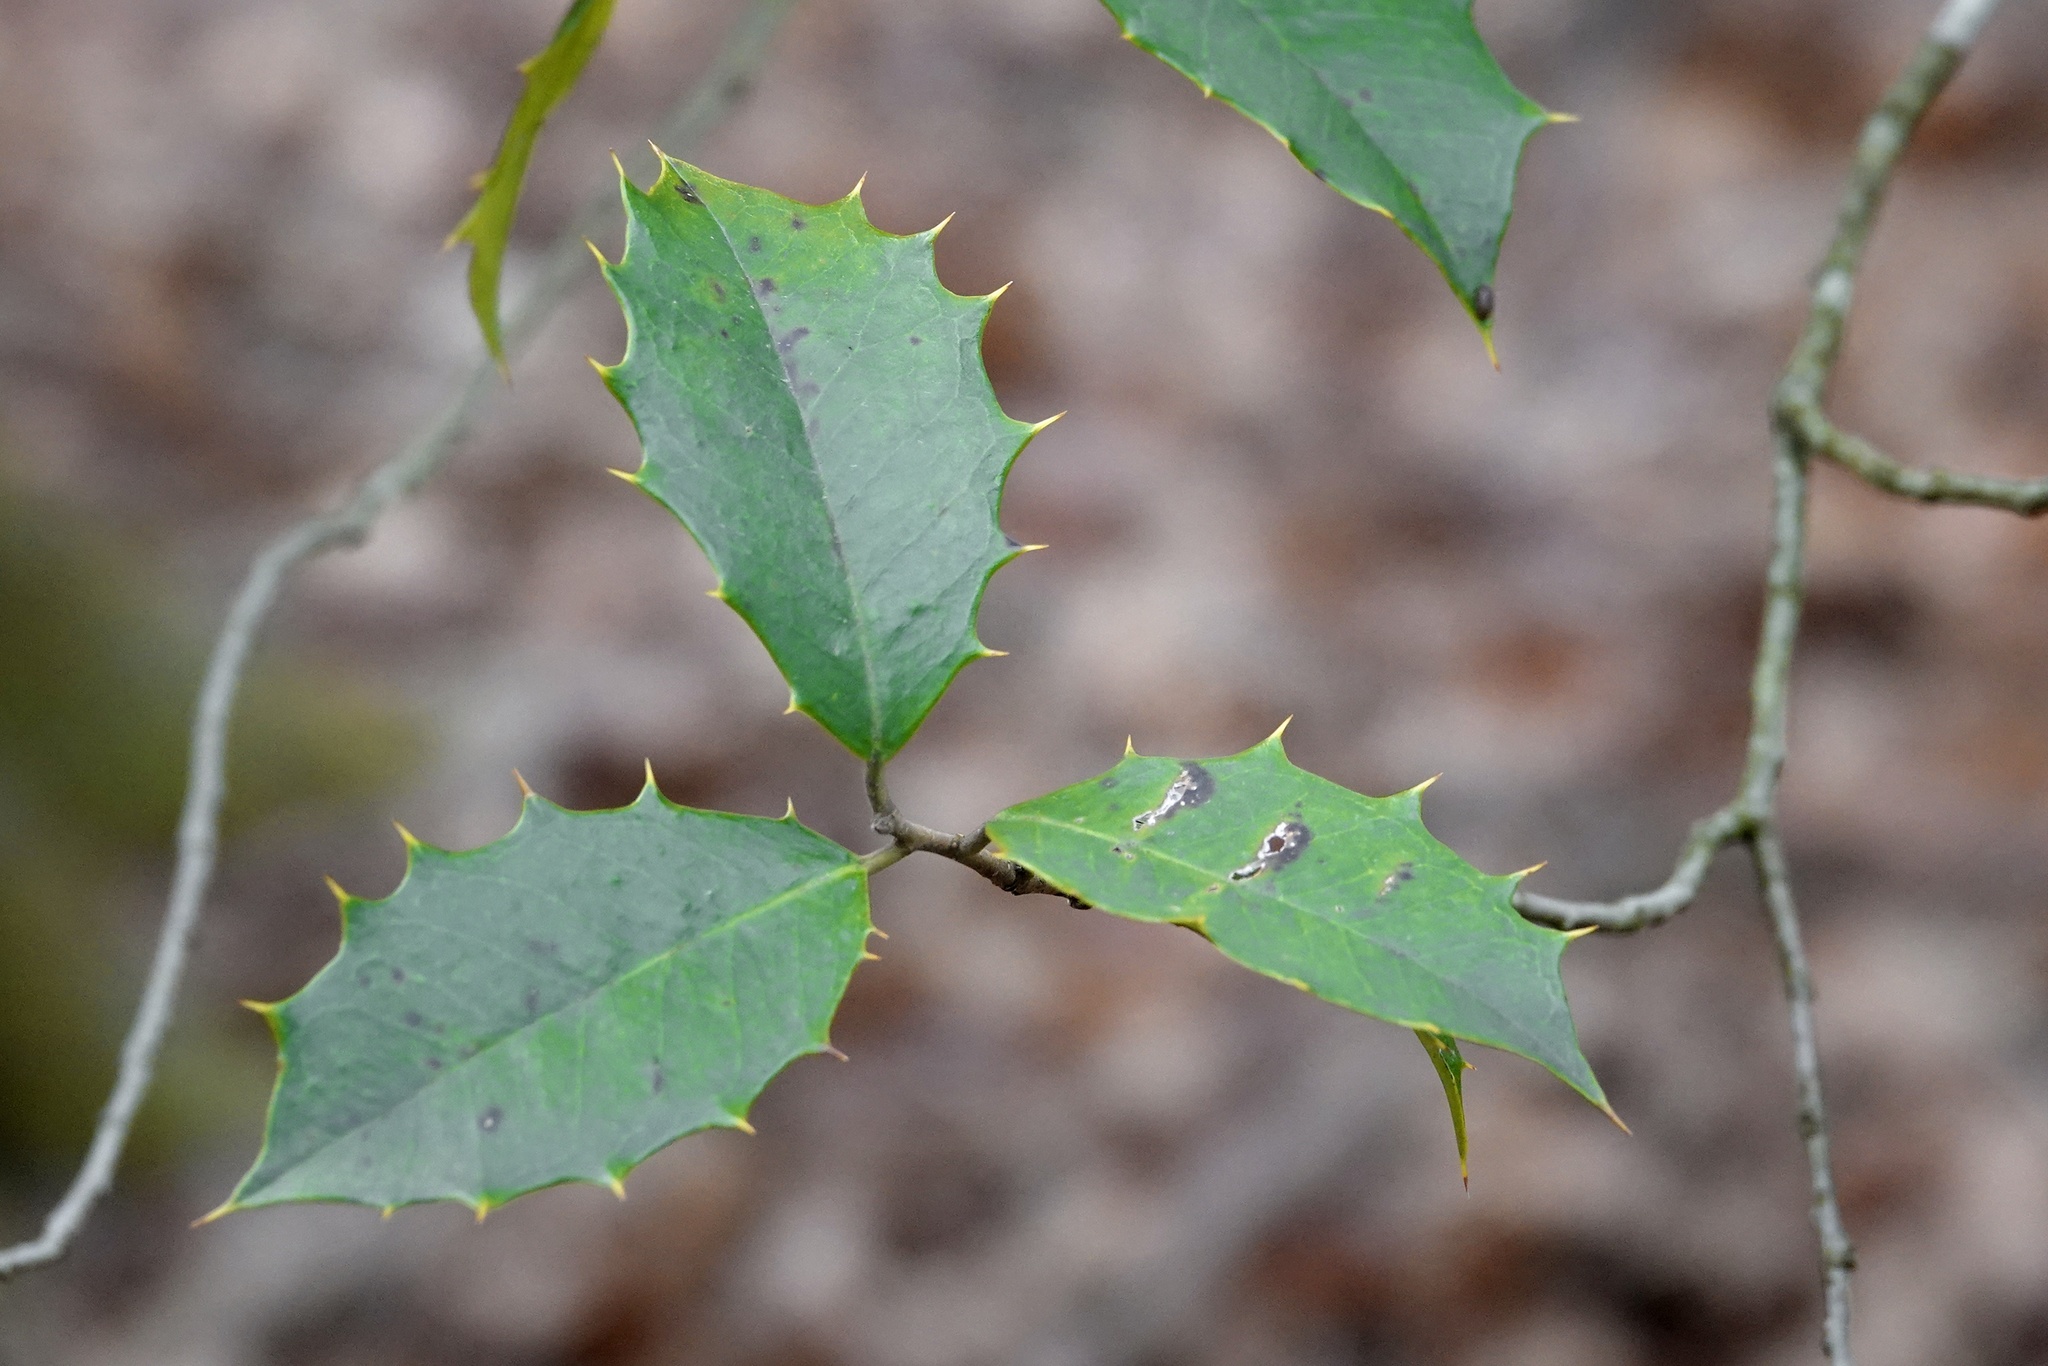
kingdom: Plantae
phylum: Tracheophyta
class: Magnoliopsida
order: Aquifoliales
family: Aquifoliaceae
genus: Ilex
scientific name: Ilex opaca
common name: American holly
